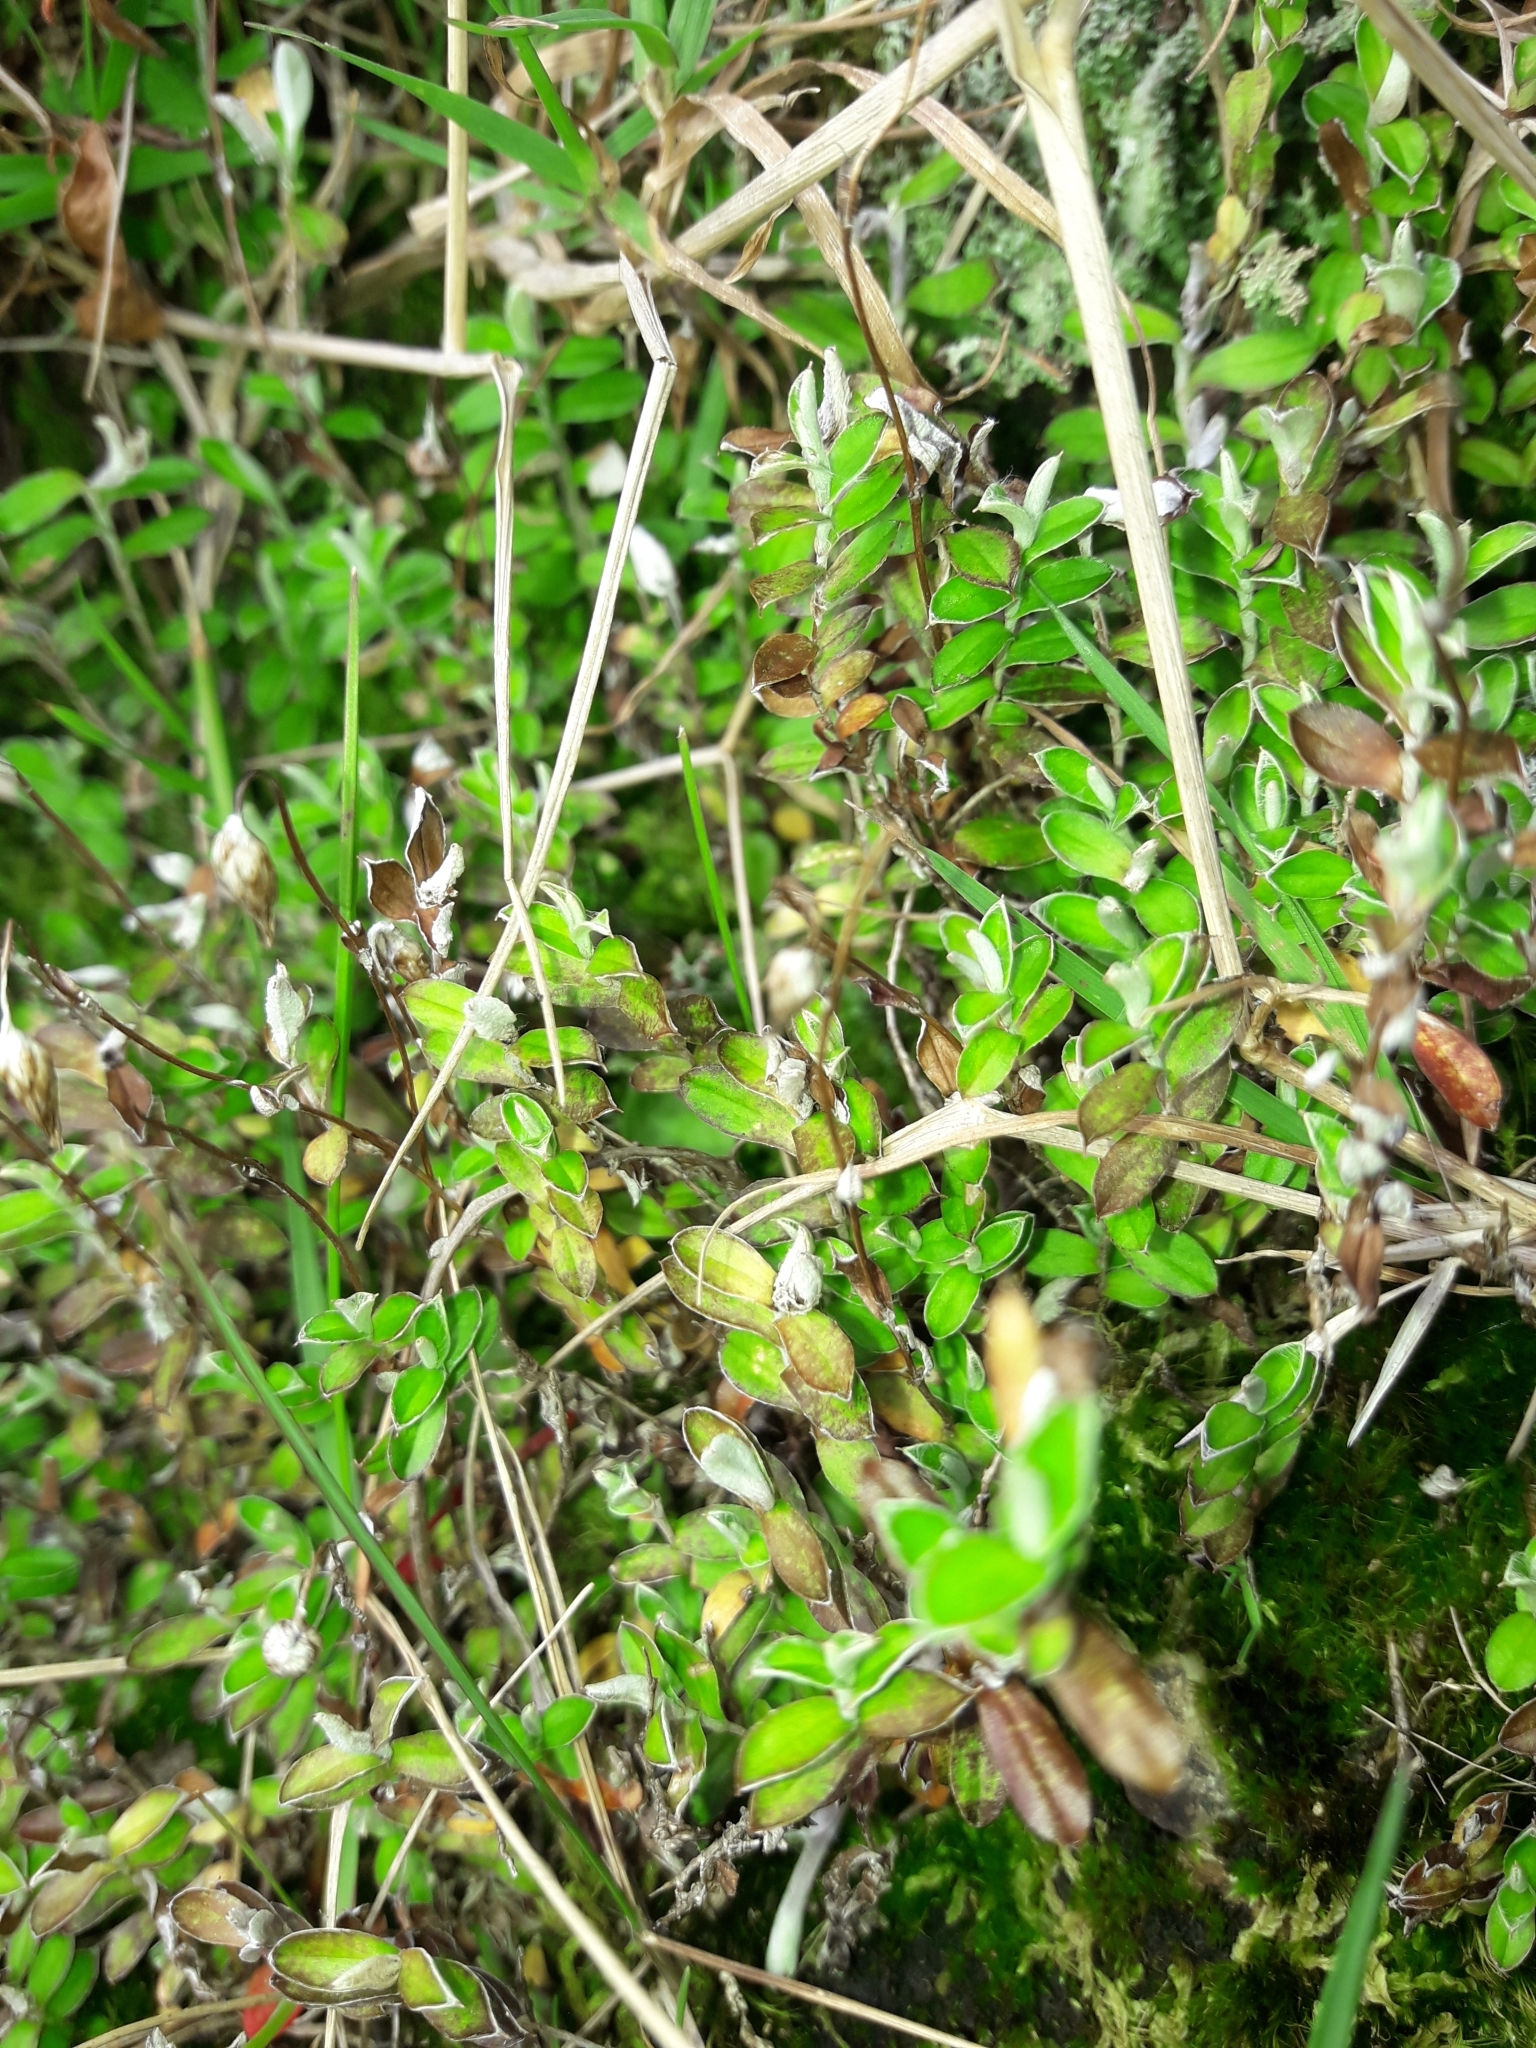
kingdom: Plantae
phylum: Tracheophyta
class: Magnoliopsida
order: Asterales
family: Asteraceae
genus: Helichrysum
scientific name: Helichrysum filicaule
